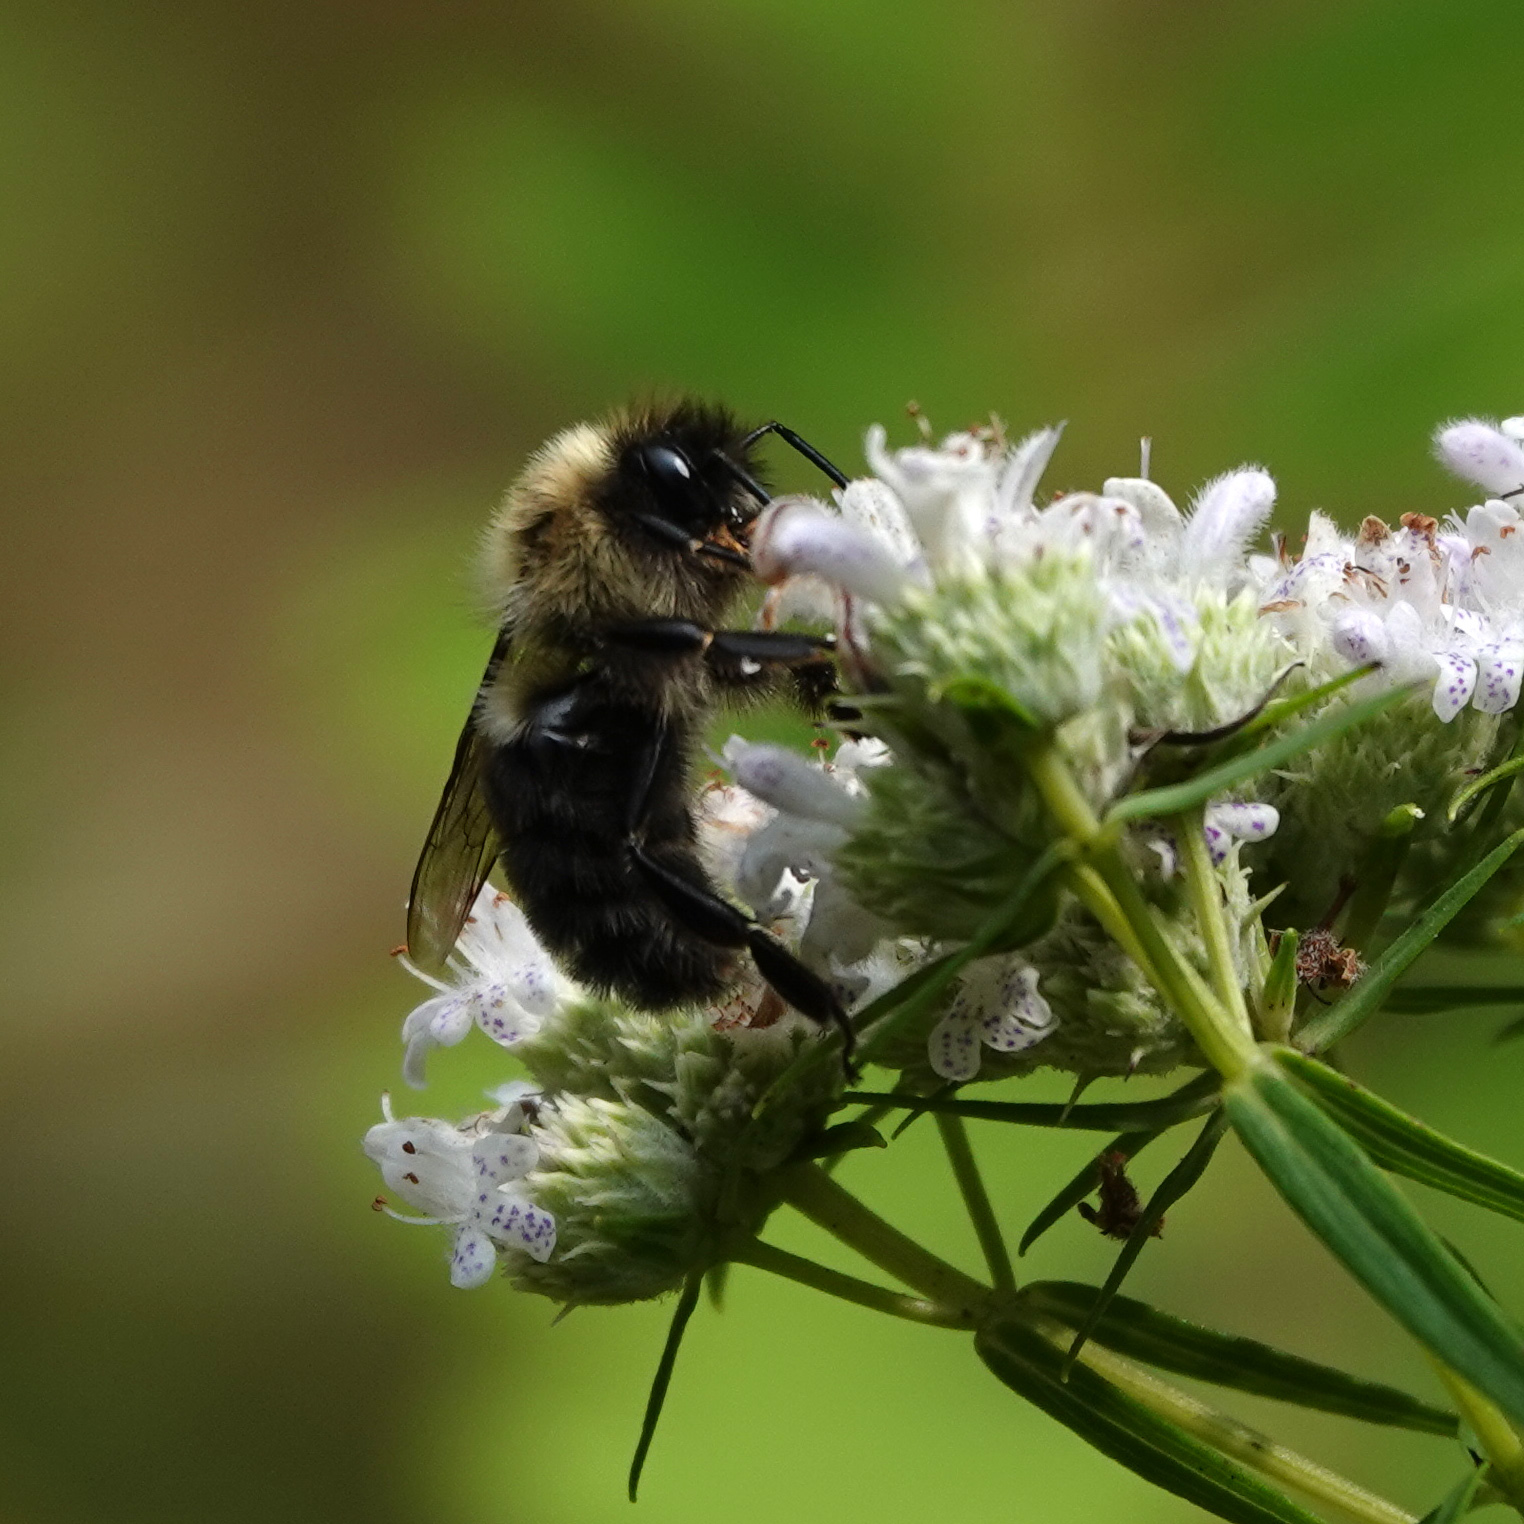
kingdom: Animalia
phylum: Arthropoda
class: Insecta
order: Hymenoptera
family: Apidae
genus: Bombus
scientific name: Bombus impatiens
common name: Common eastern bumble bee
